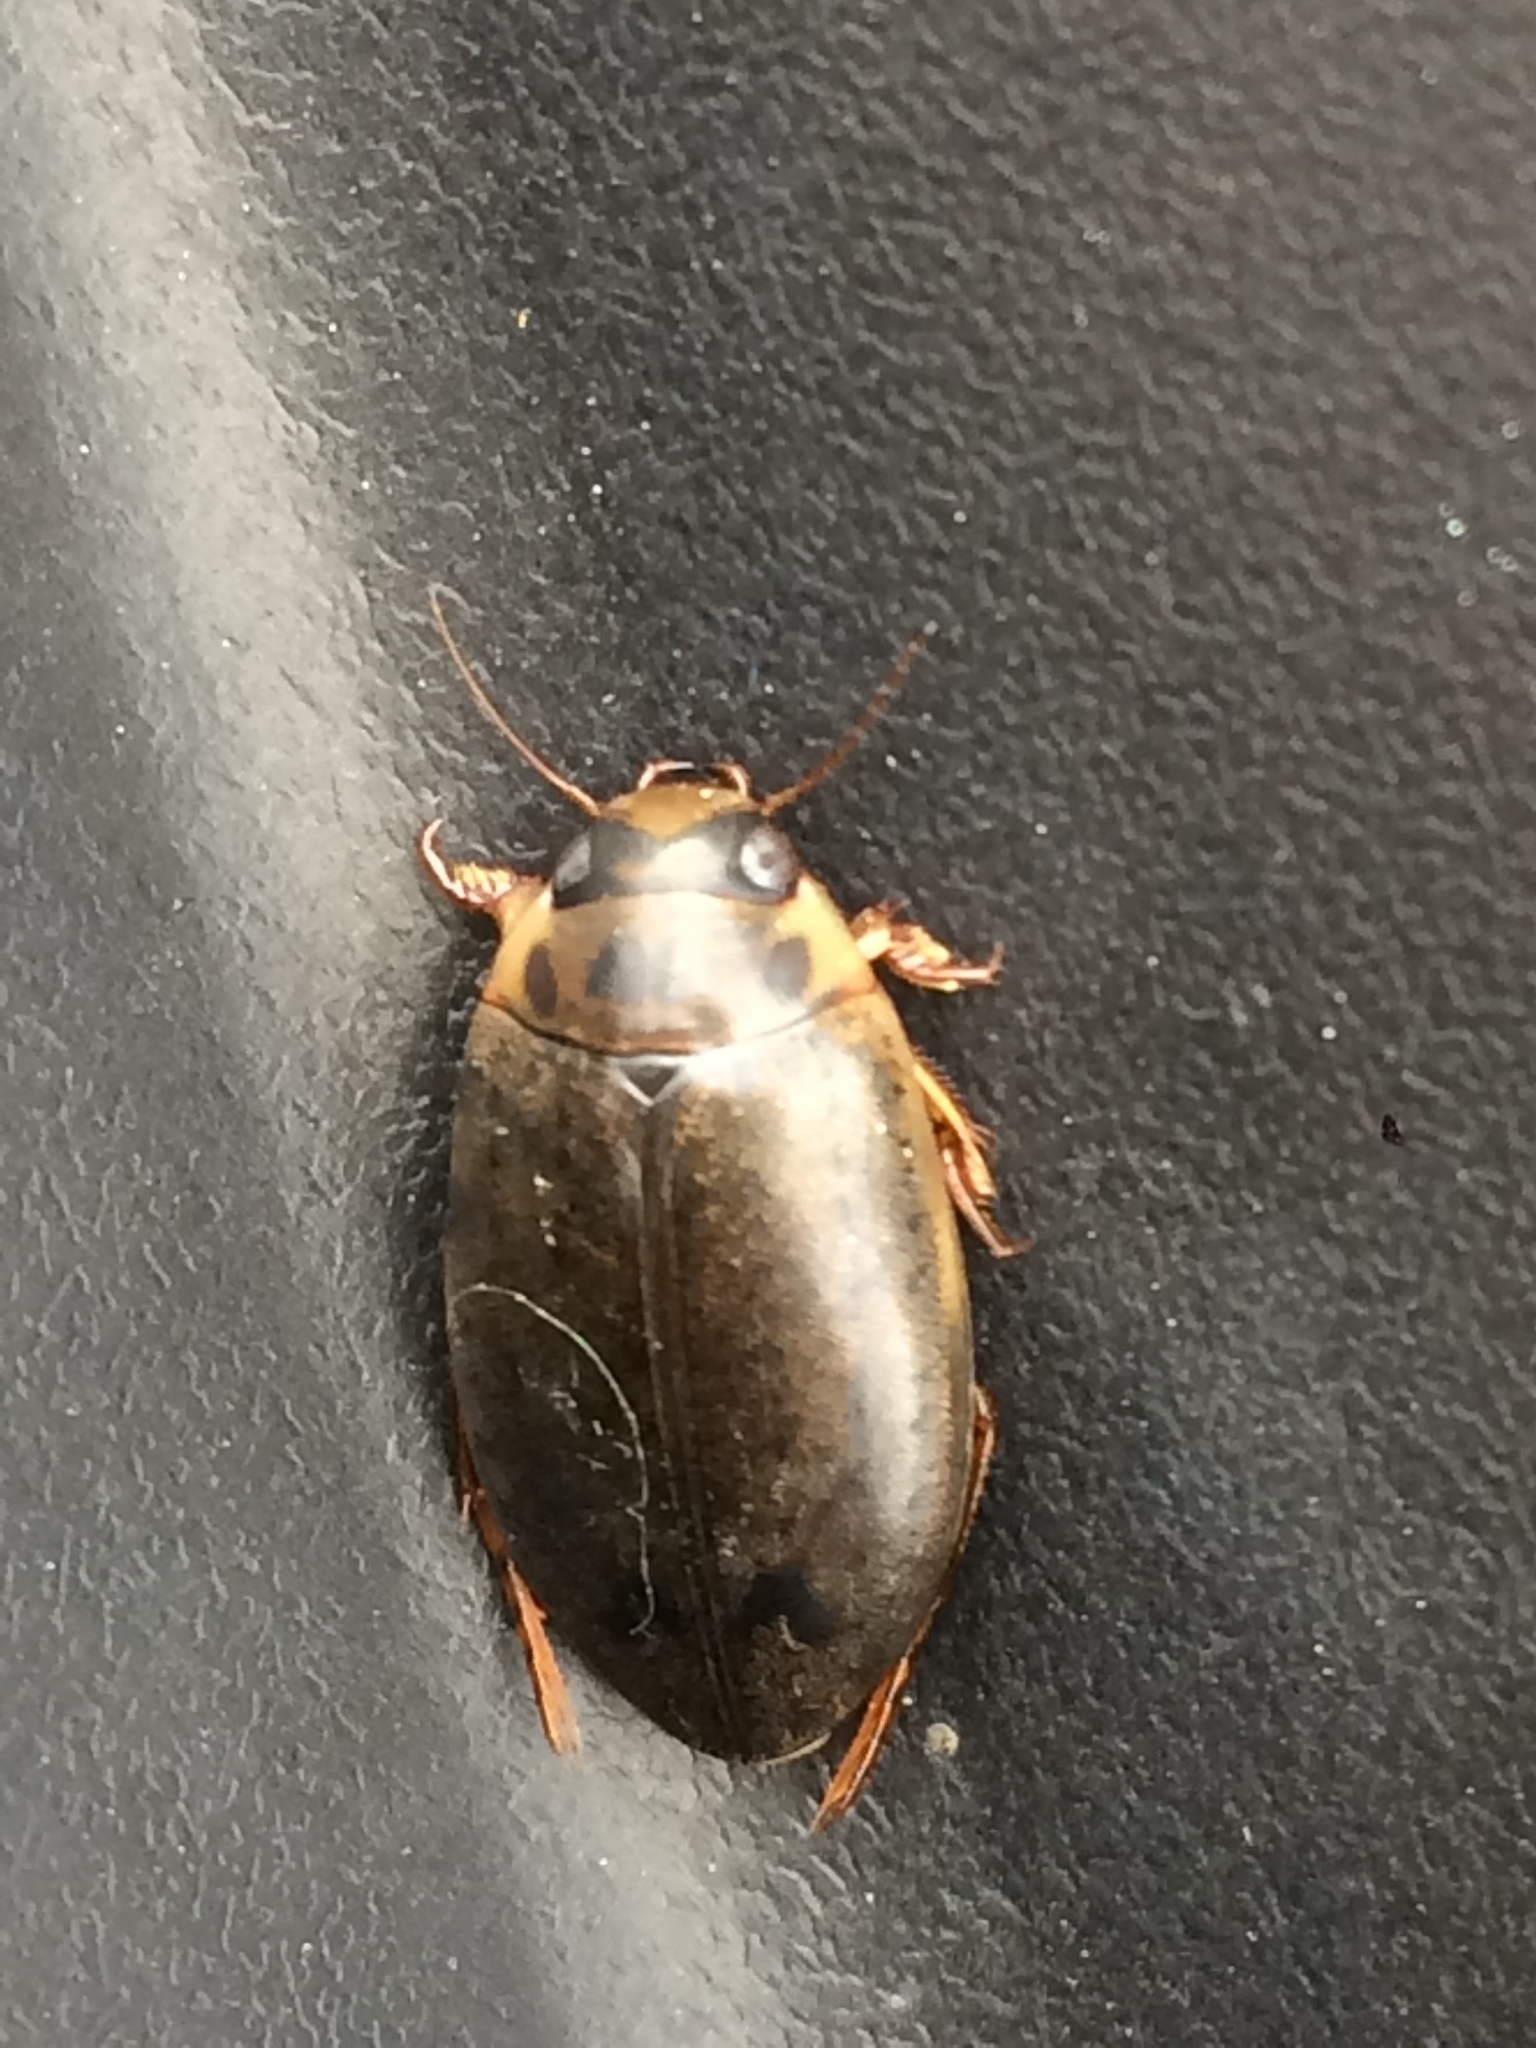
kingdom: Animalia
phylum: Arthropoda
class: Insecta
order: Coleoptera
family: Dytiscidae
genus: Rhantus
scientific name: Rhantus gutticollis
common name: Predaceous diving beetle
